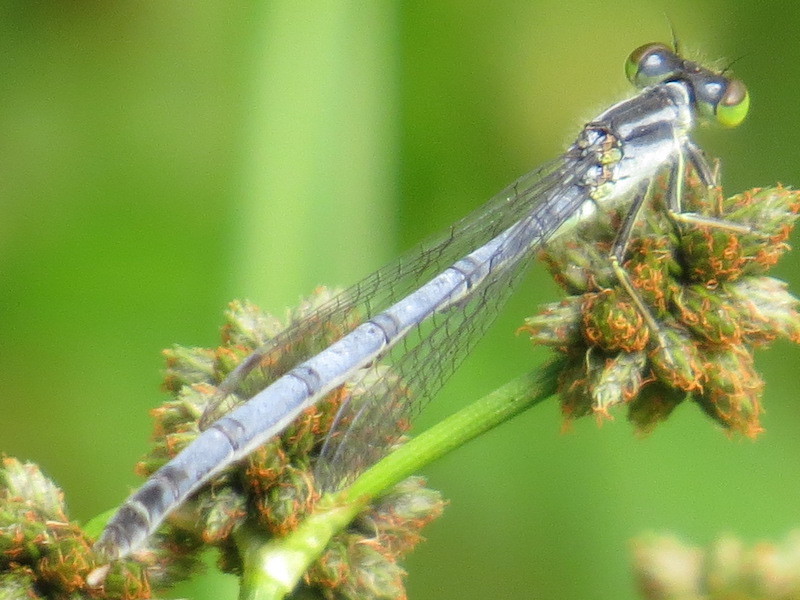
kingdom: Animalia
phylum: Arthropoda
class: Insecta
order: Odonata
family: Coenagrionidae
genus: Ischnura
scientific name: Ischnura verticalis
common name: Eastern forktail
